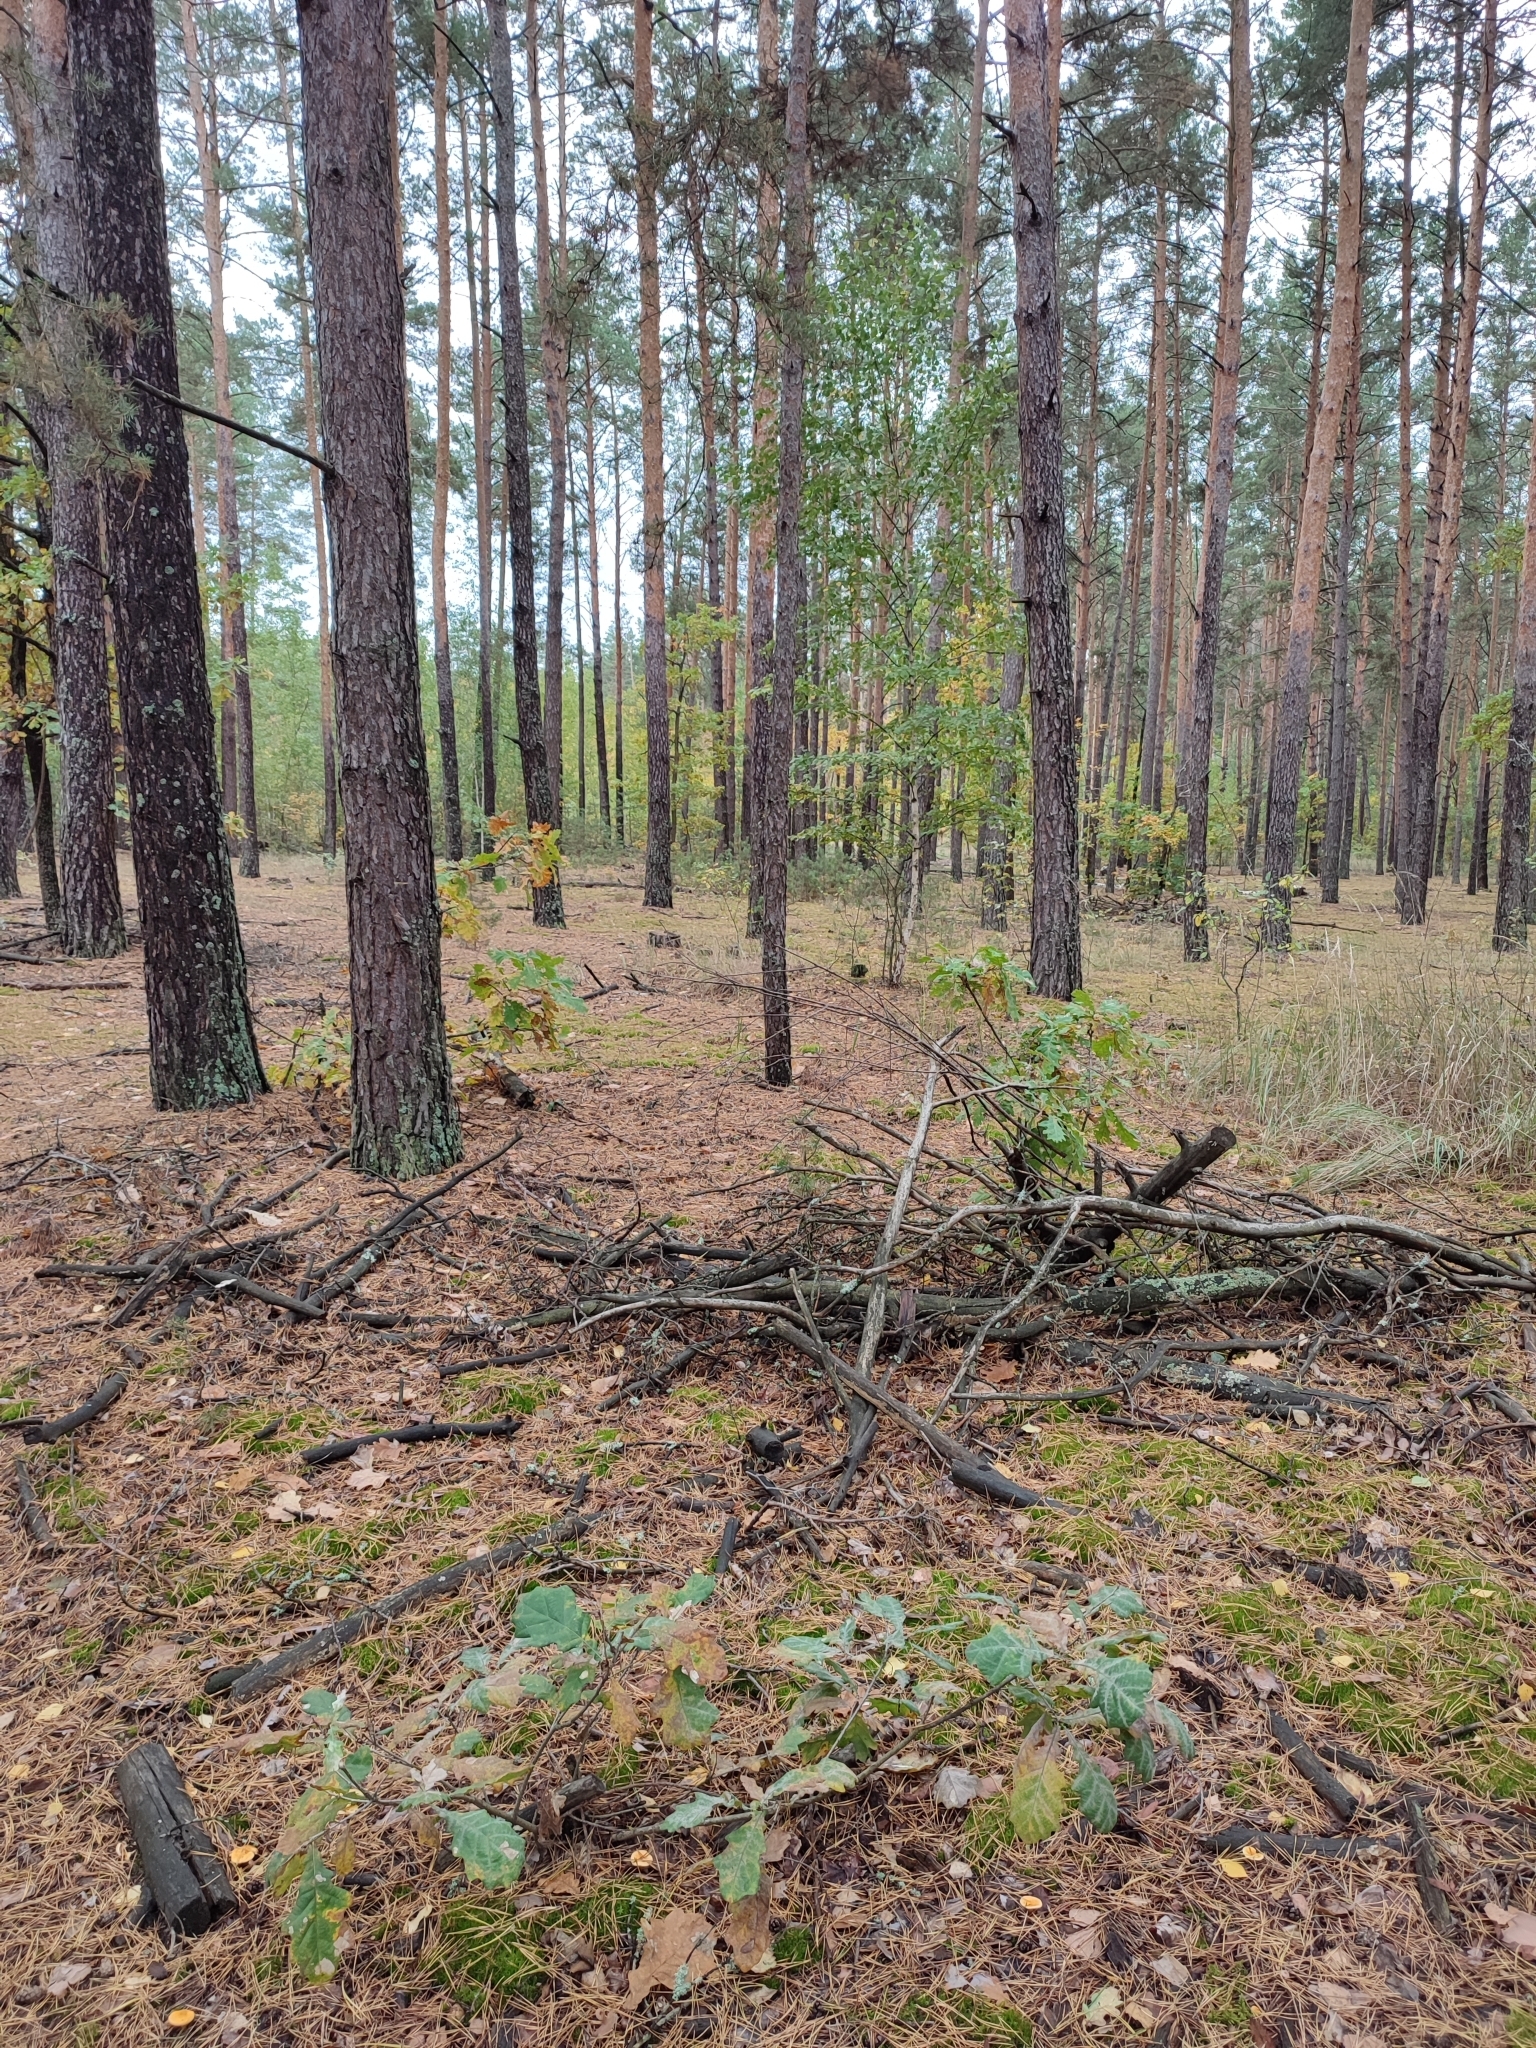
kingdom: Plantae
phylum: Tracheophyta
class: Magnoliopsida
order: Fagales
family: Fagaceae
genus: Quercus
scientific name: Quercus robur
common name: Pedunculate oak
